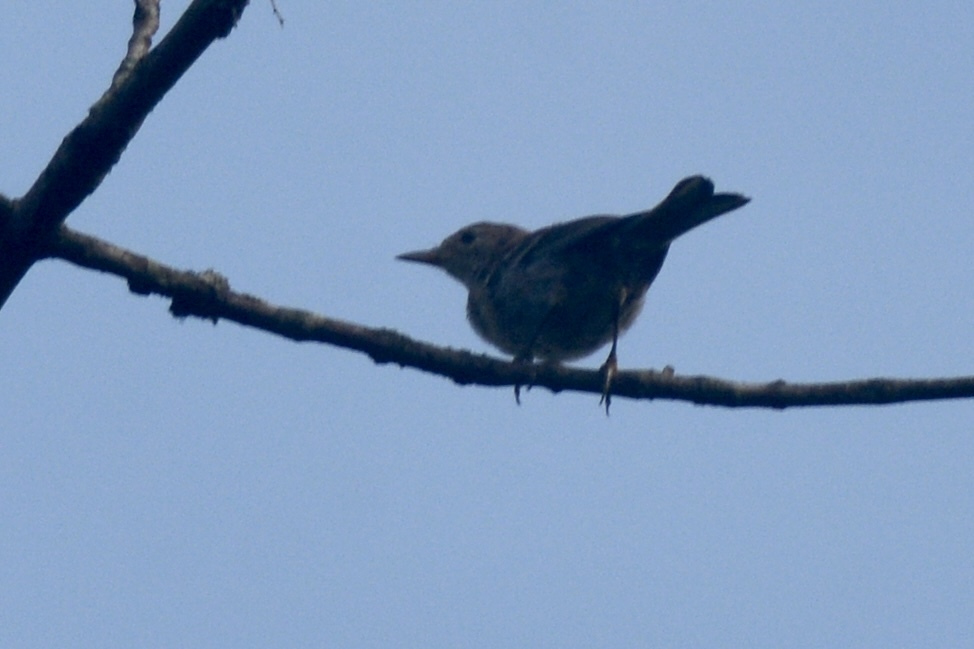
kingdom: Animalia
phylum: Chordata
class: Aves
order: Passeriformes
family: Mimidae
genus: Mimus
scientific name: Mimus polyglottos
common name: Northern mockingbird
